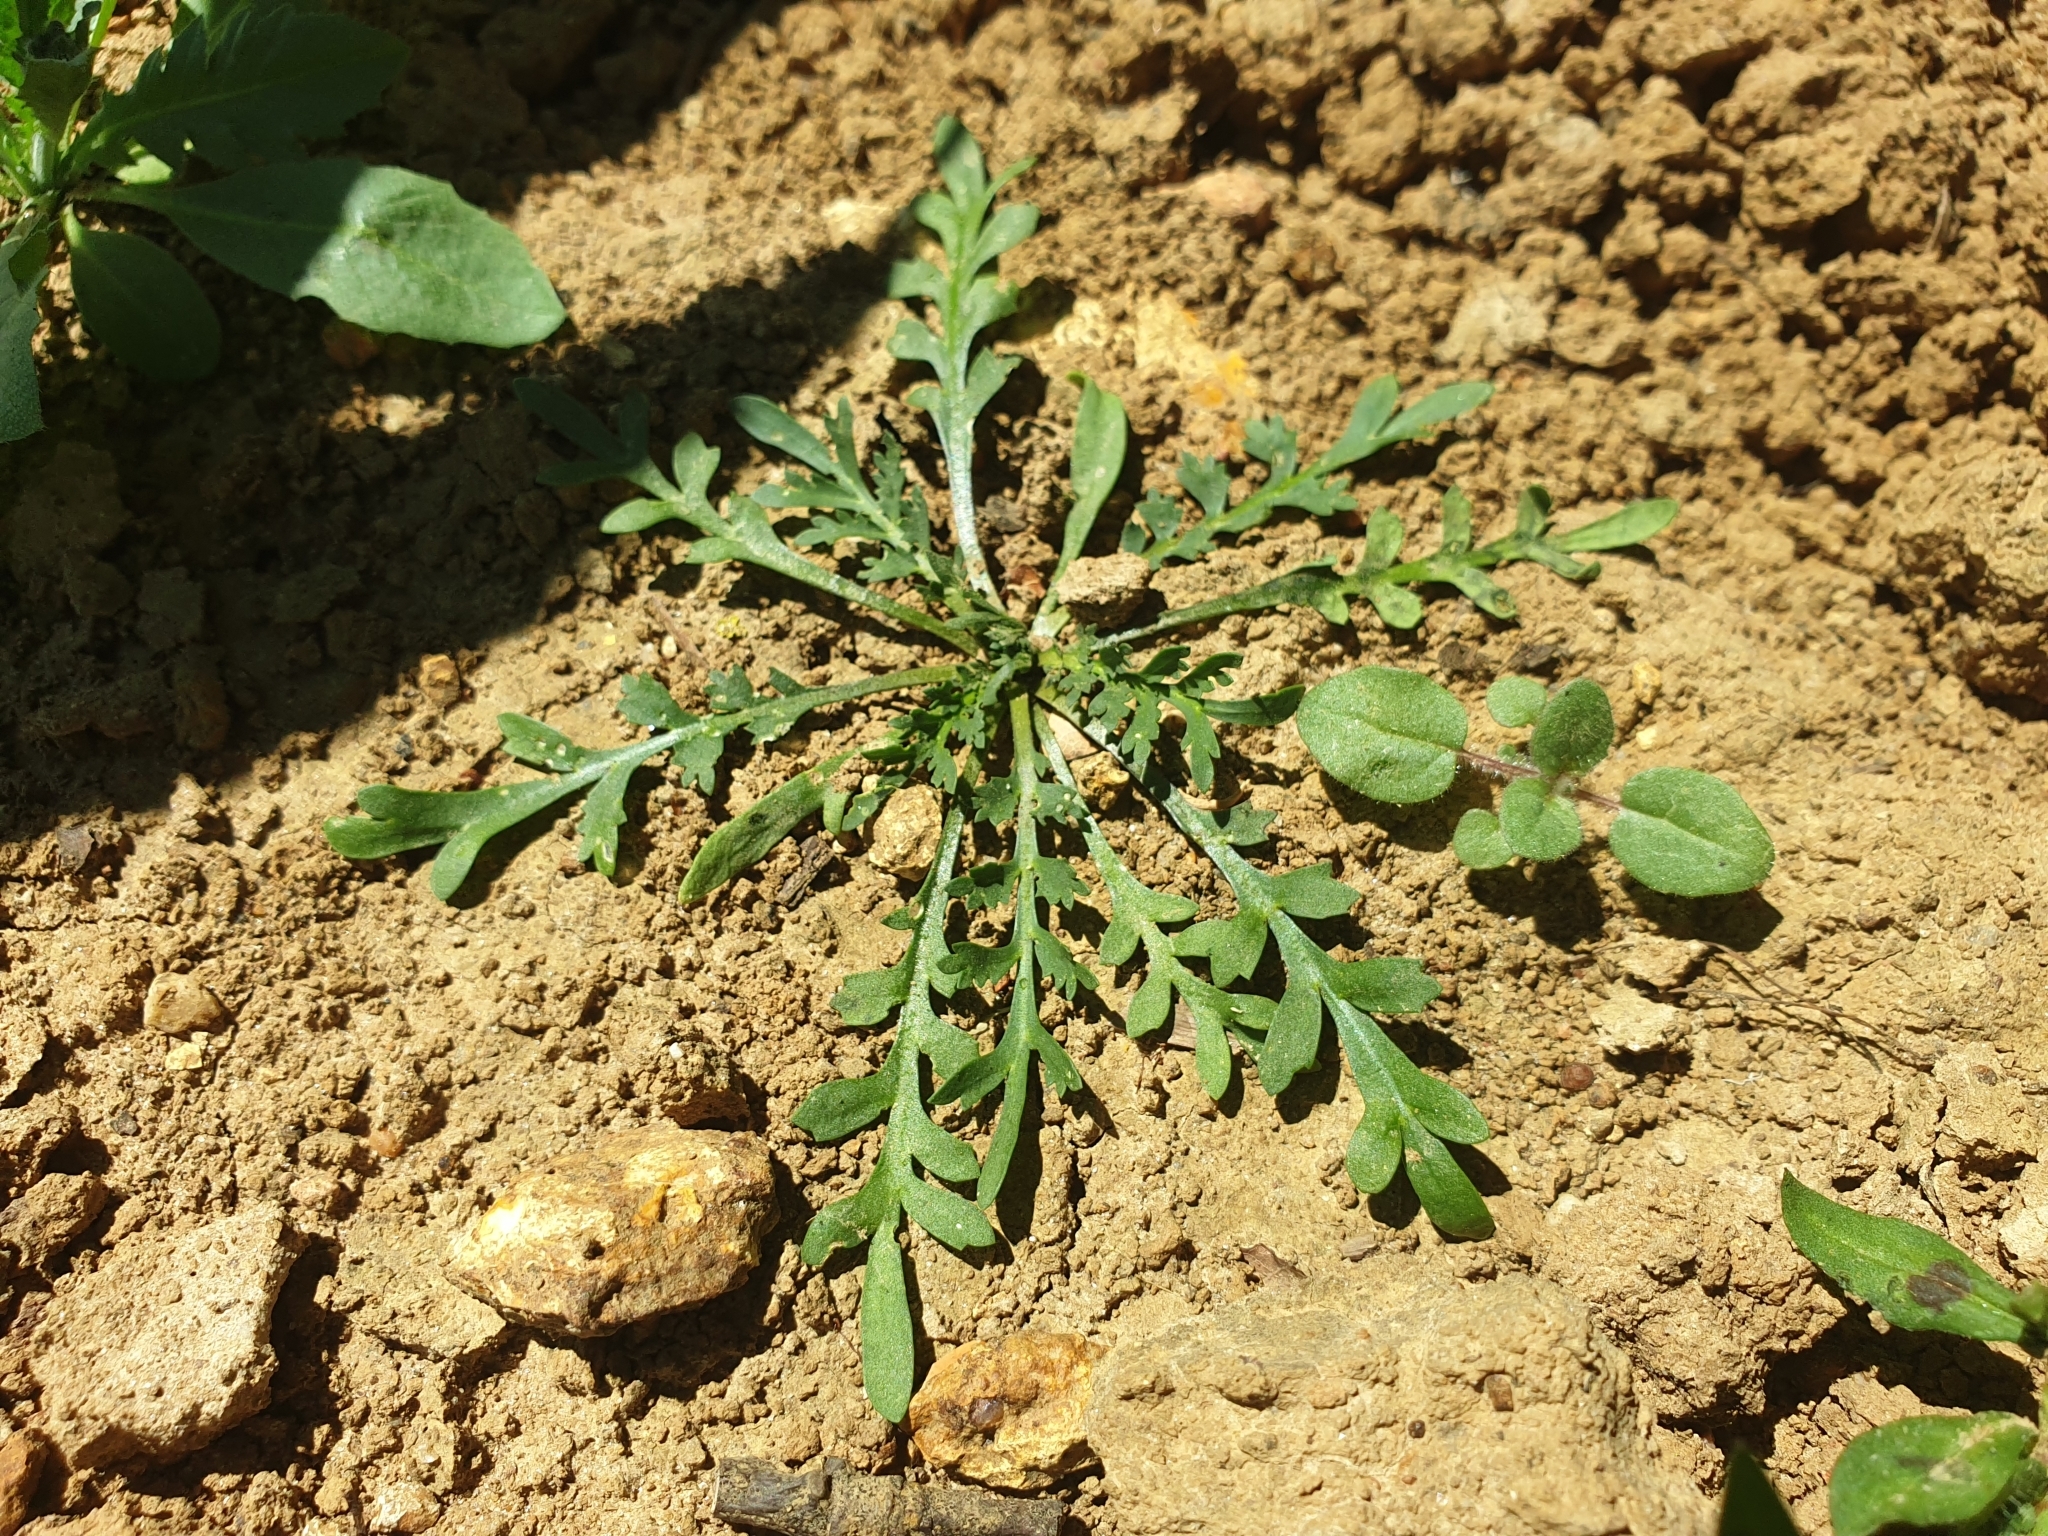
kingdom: Plantae
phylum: Tracheophyta
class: Magnoliopsida
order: Brassicales
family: Brassicaceae
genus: Lepidium
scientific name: Lepidium coronopus
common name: Greater swinecress
